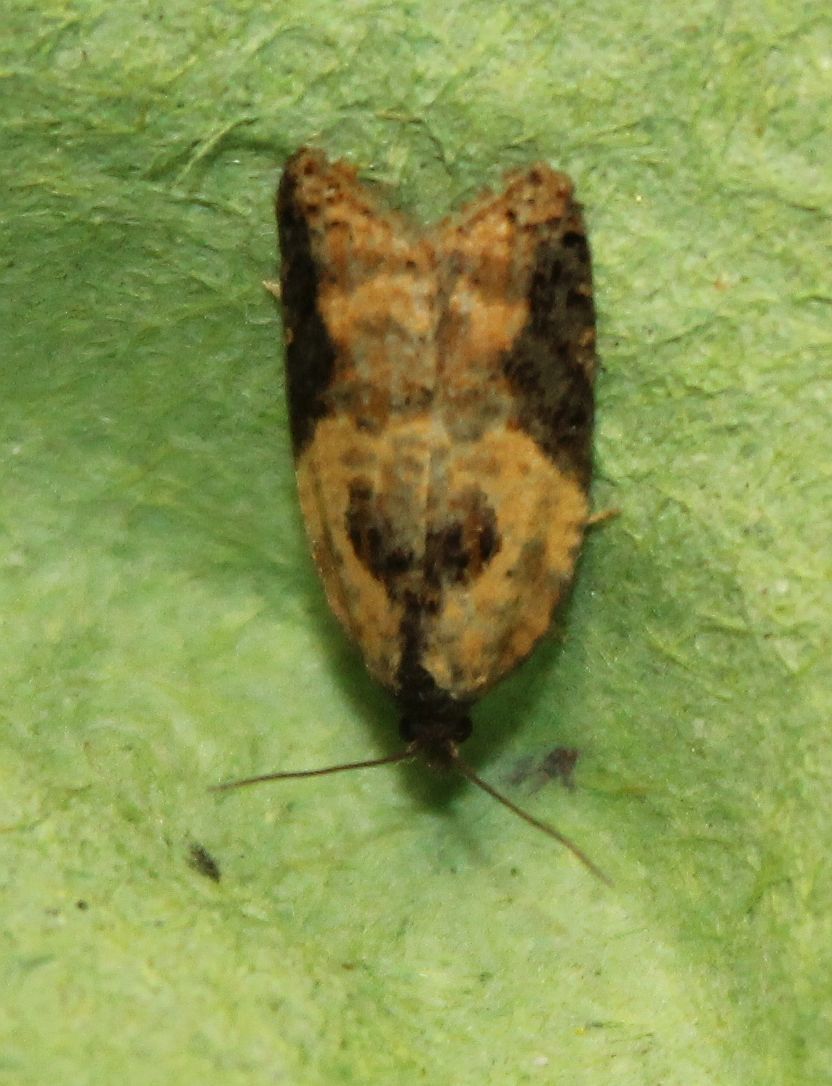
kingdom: Animalia
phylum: Arthropoda
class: Insecta
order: Lepidoptera
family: Tortricidae
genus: Acleris
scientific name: Acleris variegana
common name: Garden rose tortrix
